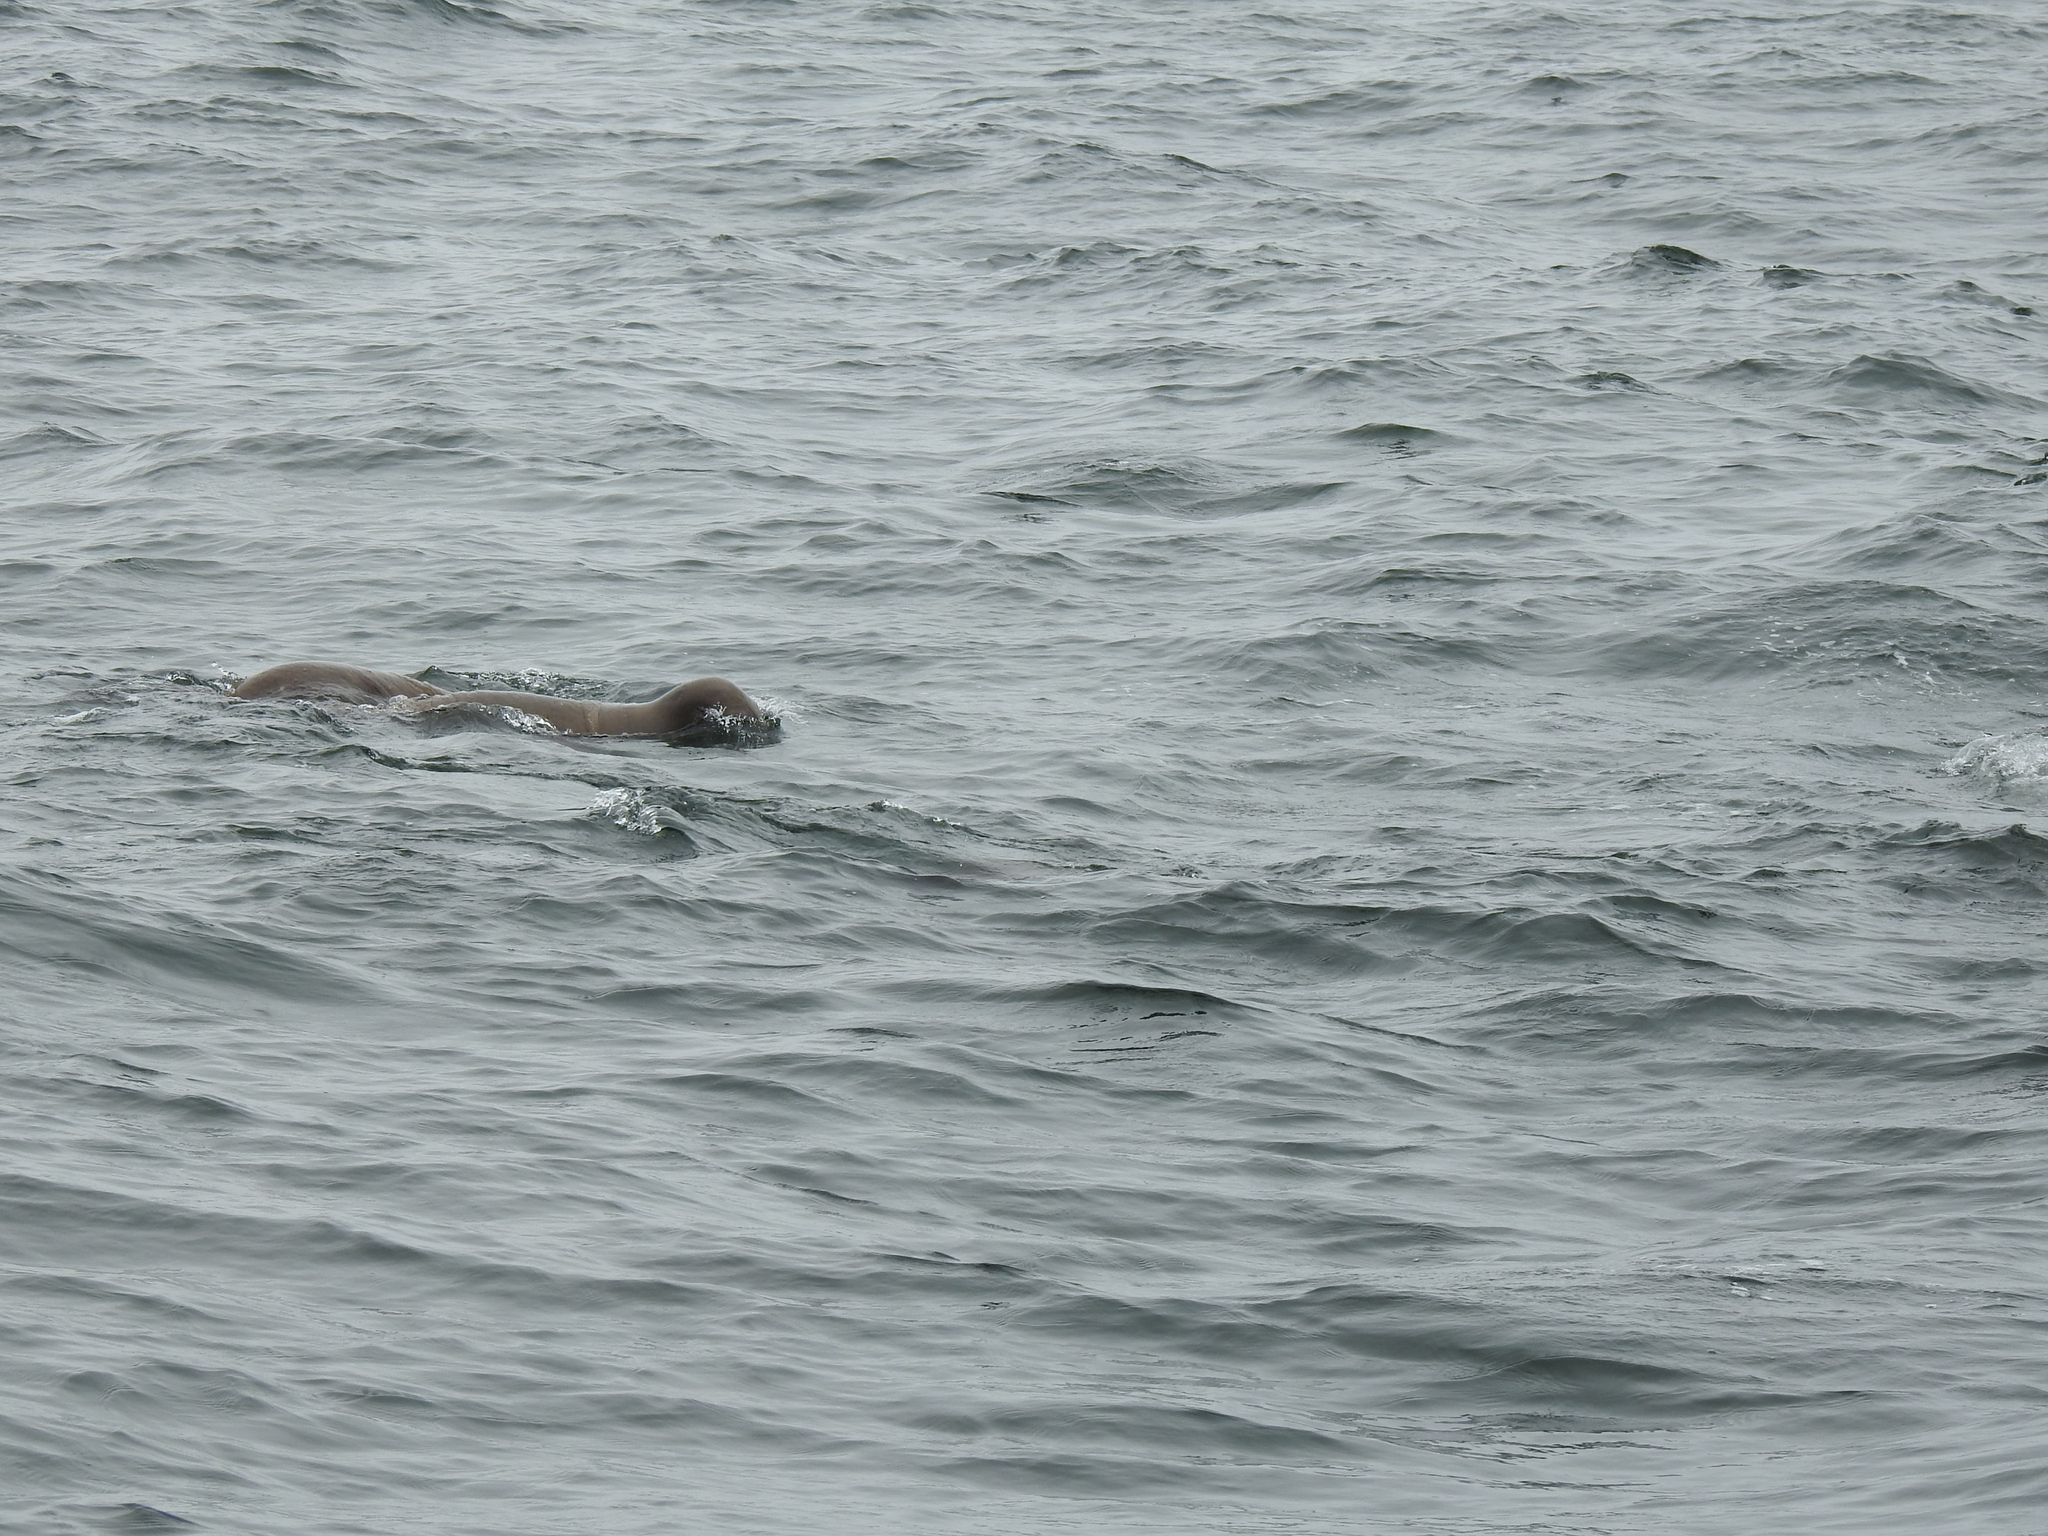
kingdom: Animalia
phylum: Chordata
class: Mammalia
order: Carnivora
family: Otariidae
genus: Zalophus
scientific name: Zalophus californianus
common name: California sea lion
